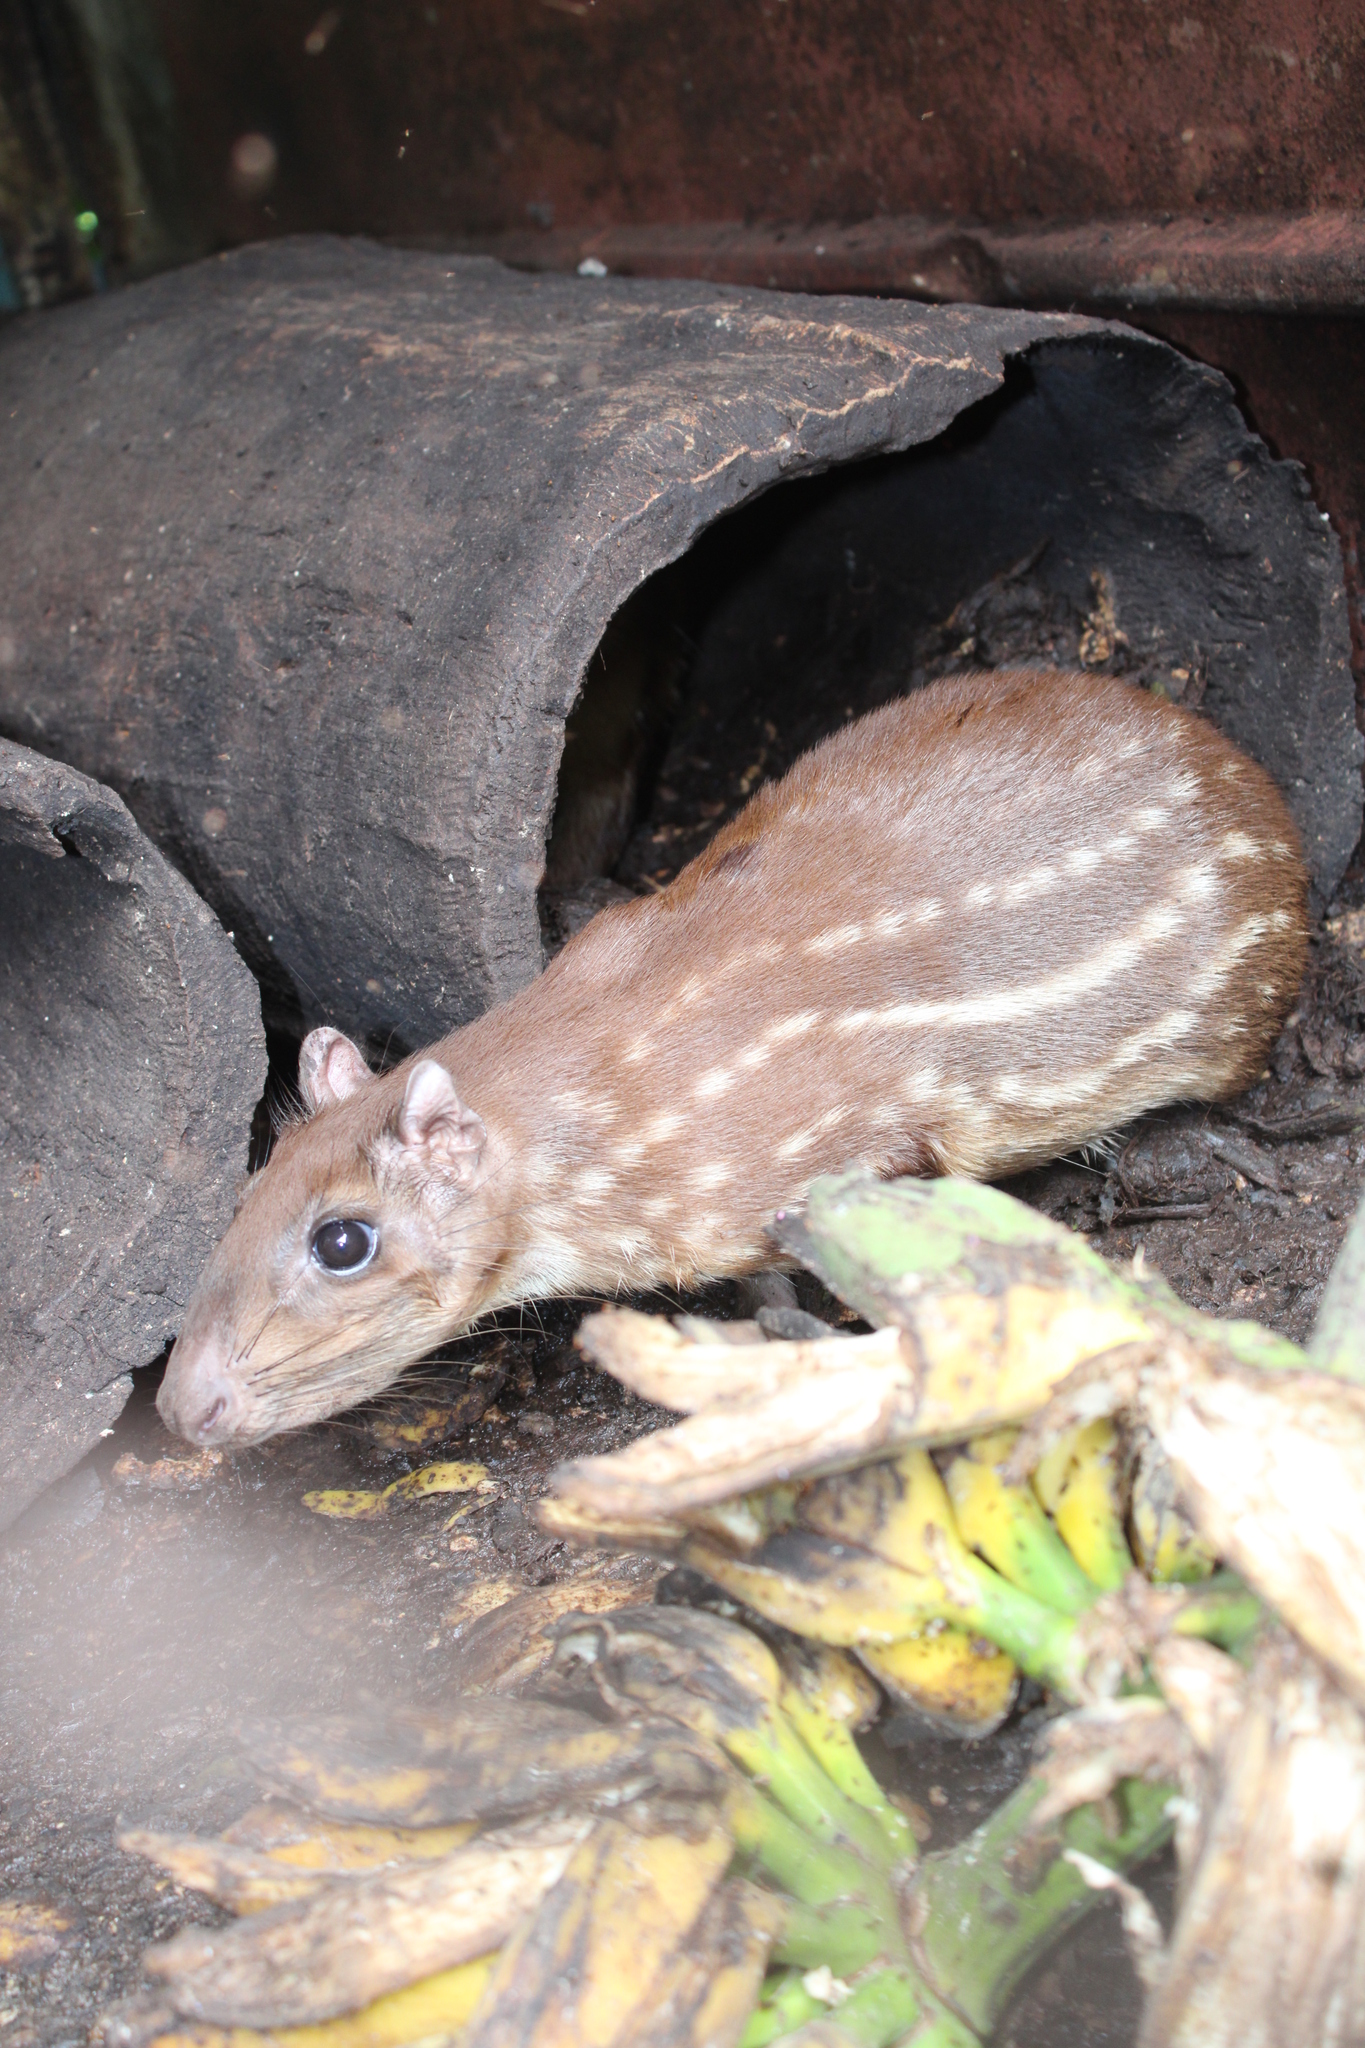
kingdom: Animalia
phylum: Chordata
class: Mammalia
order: Rodentia
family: Cuniculidae
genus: Cuniculus
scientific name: Cuniculus paca
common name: Lowland paca
